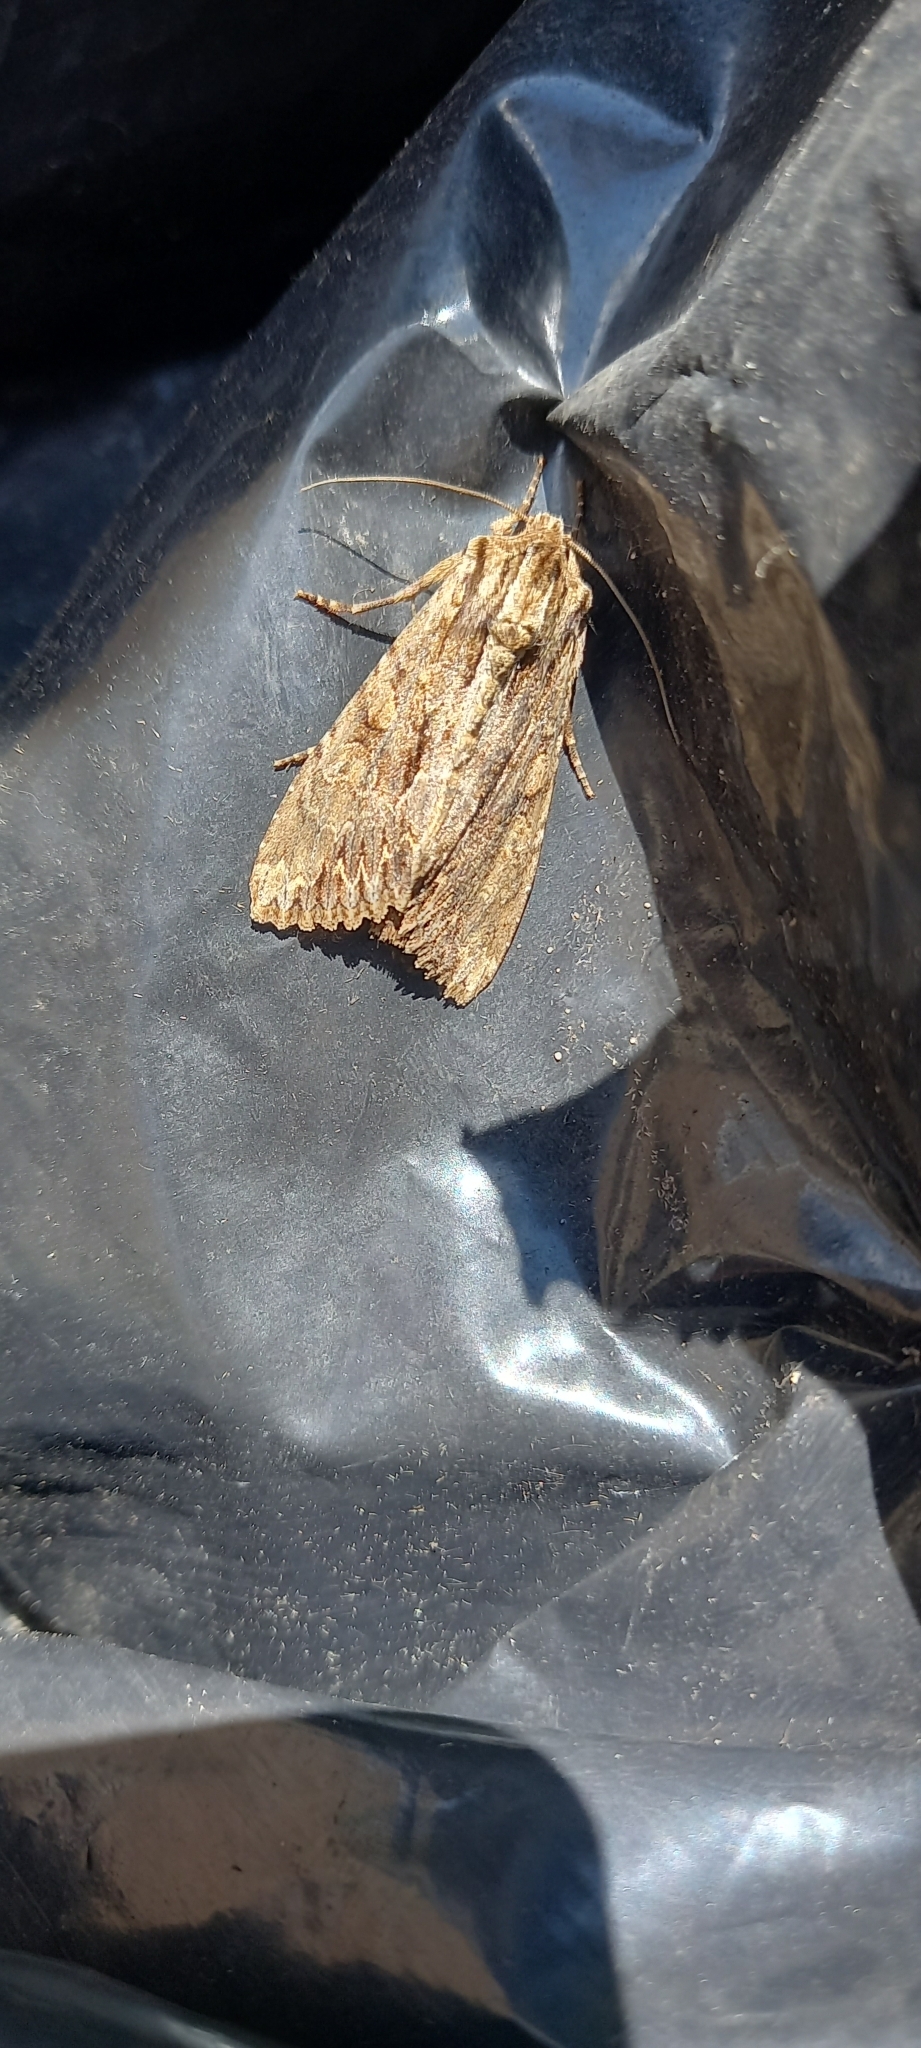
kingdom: Animalia
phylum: Arthropoda
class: Insecta
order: Lepidoptera
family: Noctuidae
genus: Apamea
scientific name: Apamea monoglypha
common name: Dark arches
